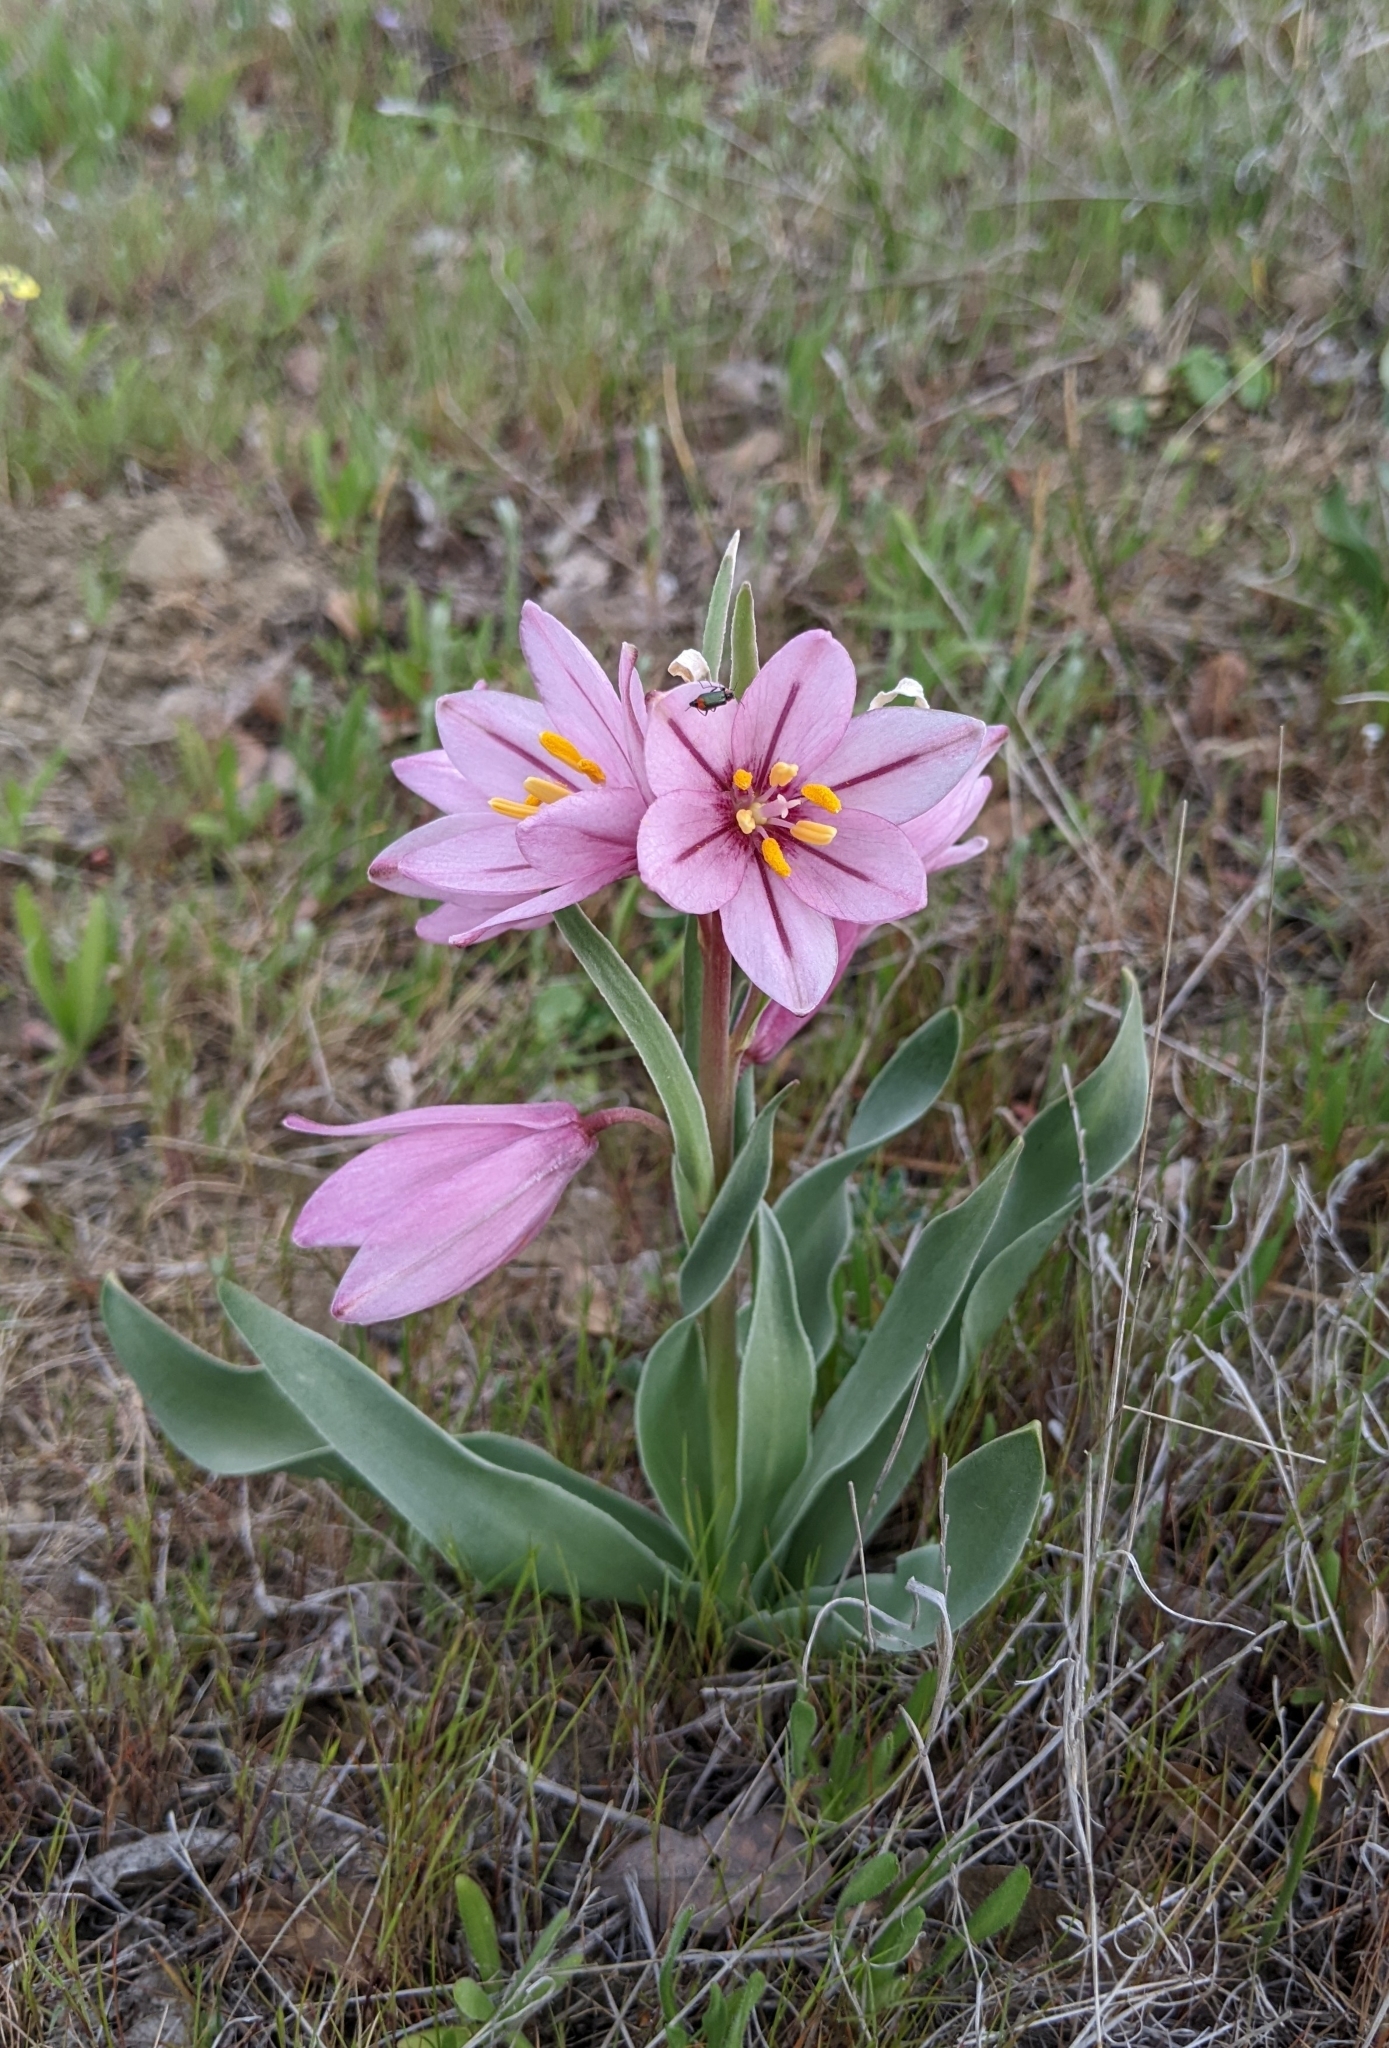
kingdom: Plantae
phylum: Tracheophyta
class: Liliopsida
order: Liliales
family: Liliaceae
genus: Fritillaria
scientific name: Fritillaria pluriflora
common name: Adobe-lily
